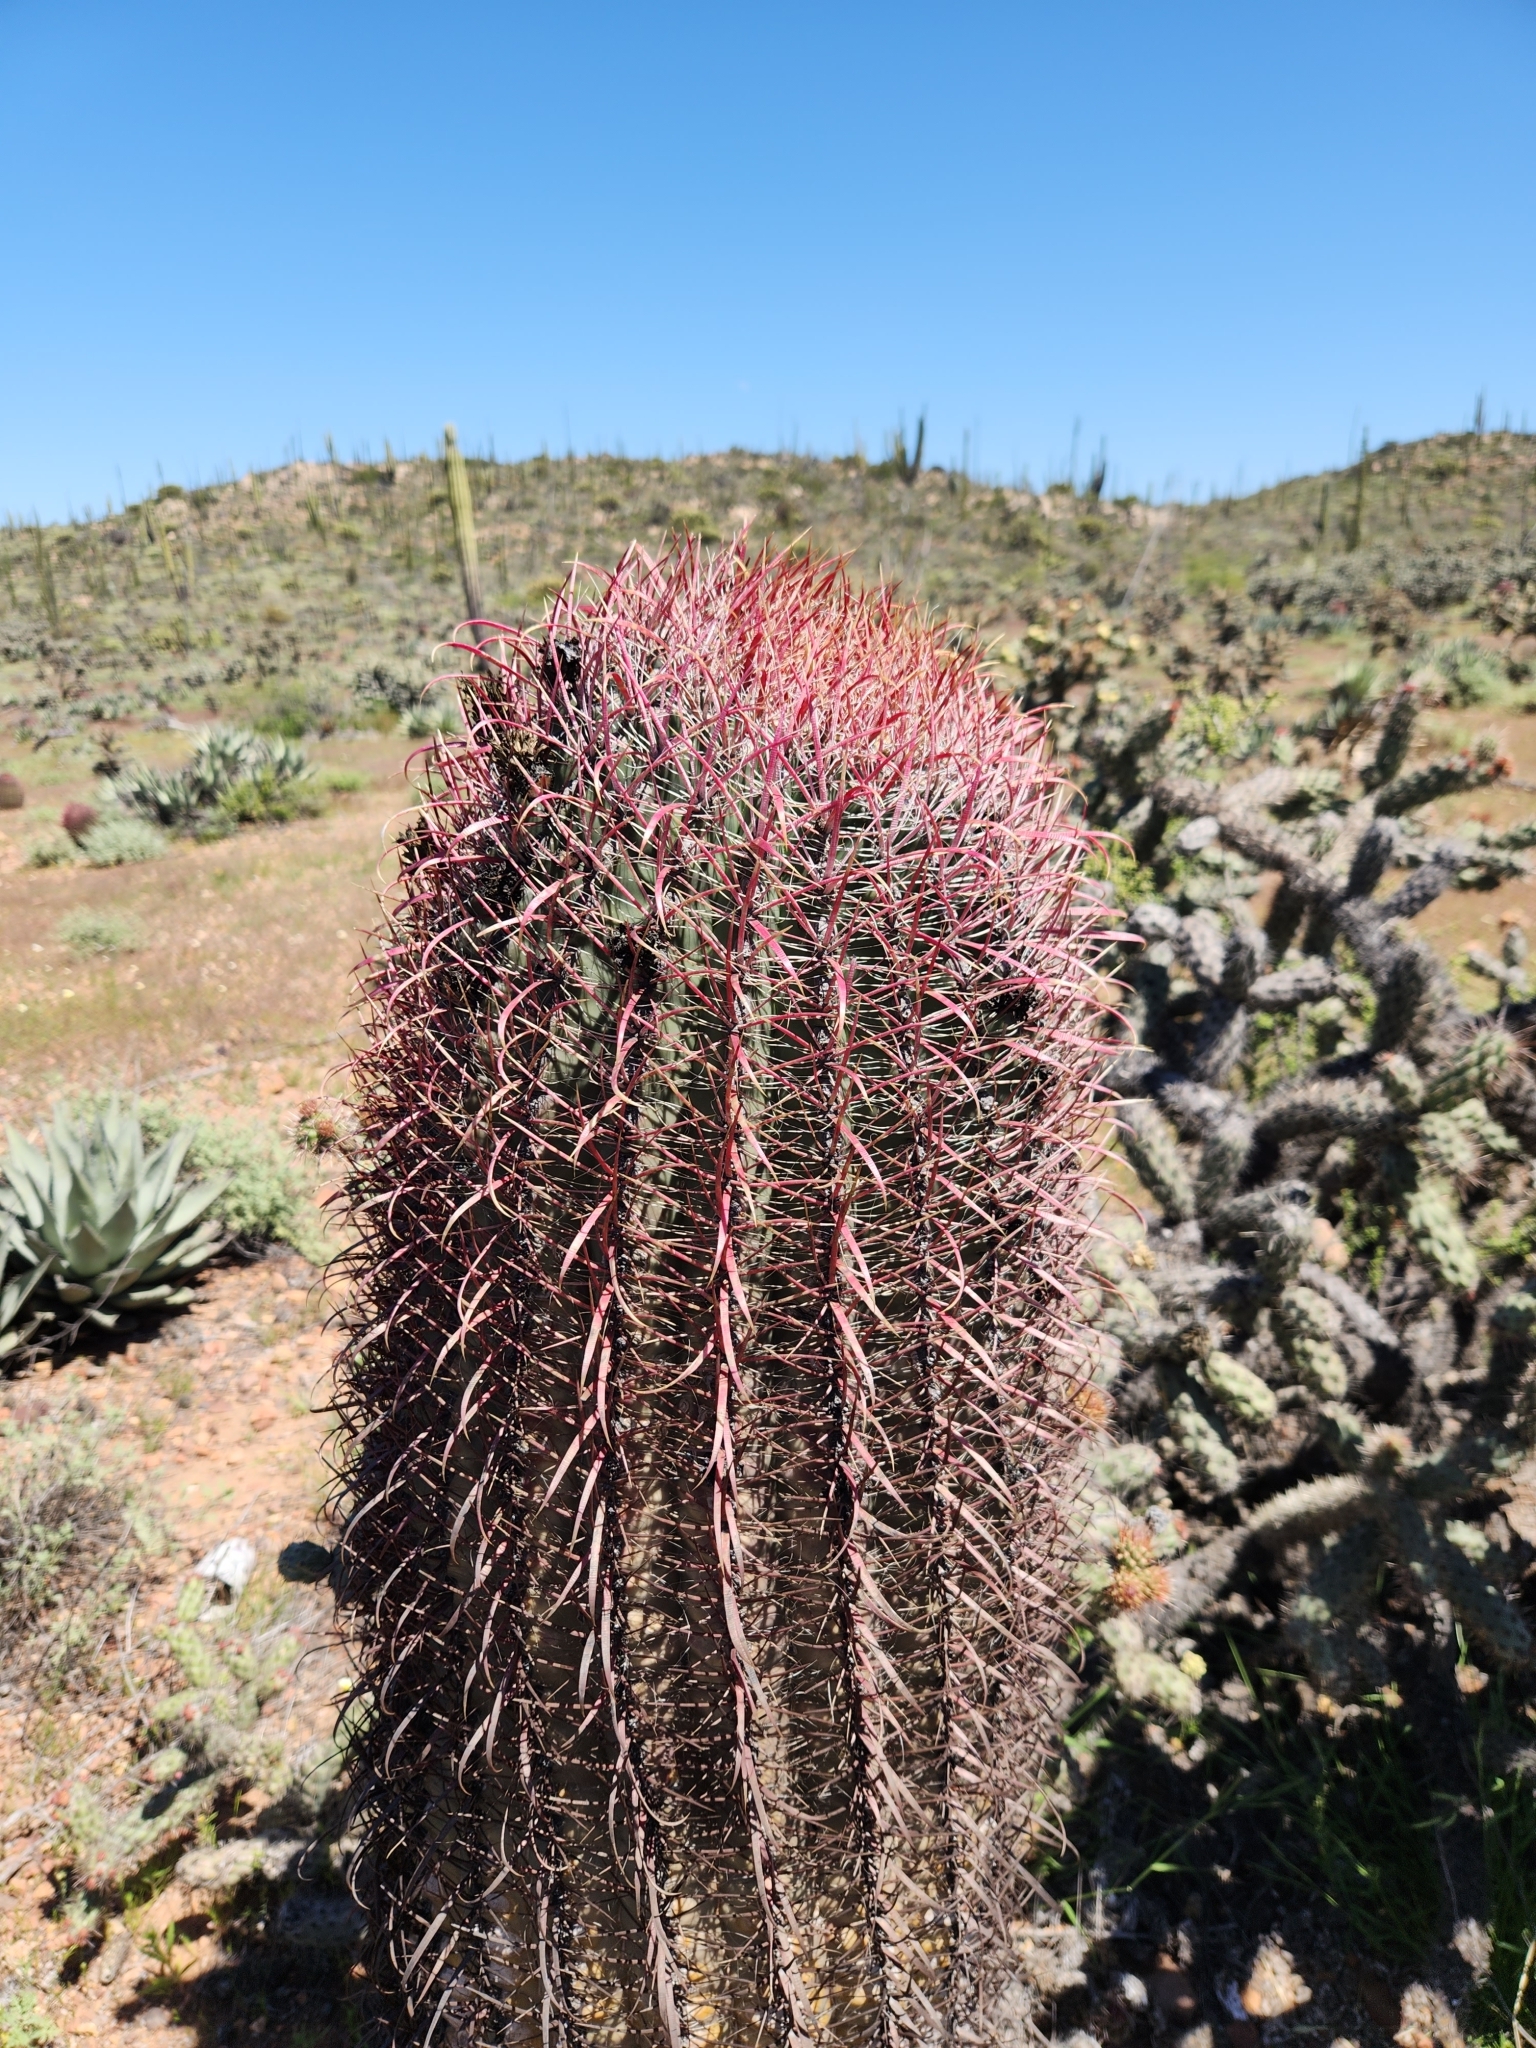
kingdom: Plantae
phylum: Tracheophyta
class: Magnoliopsida
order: Caryophyllales
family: Cactaceae
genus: Ferocactus
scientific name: Ferocactus gracilis
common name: Fire barrel cactus
